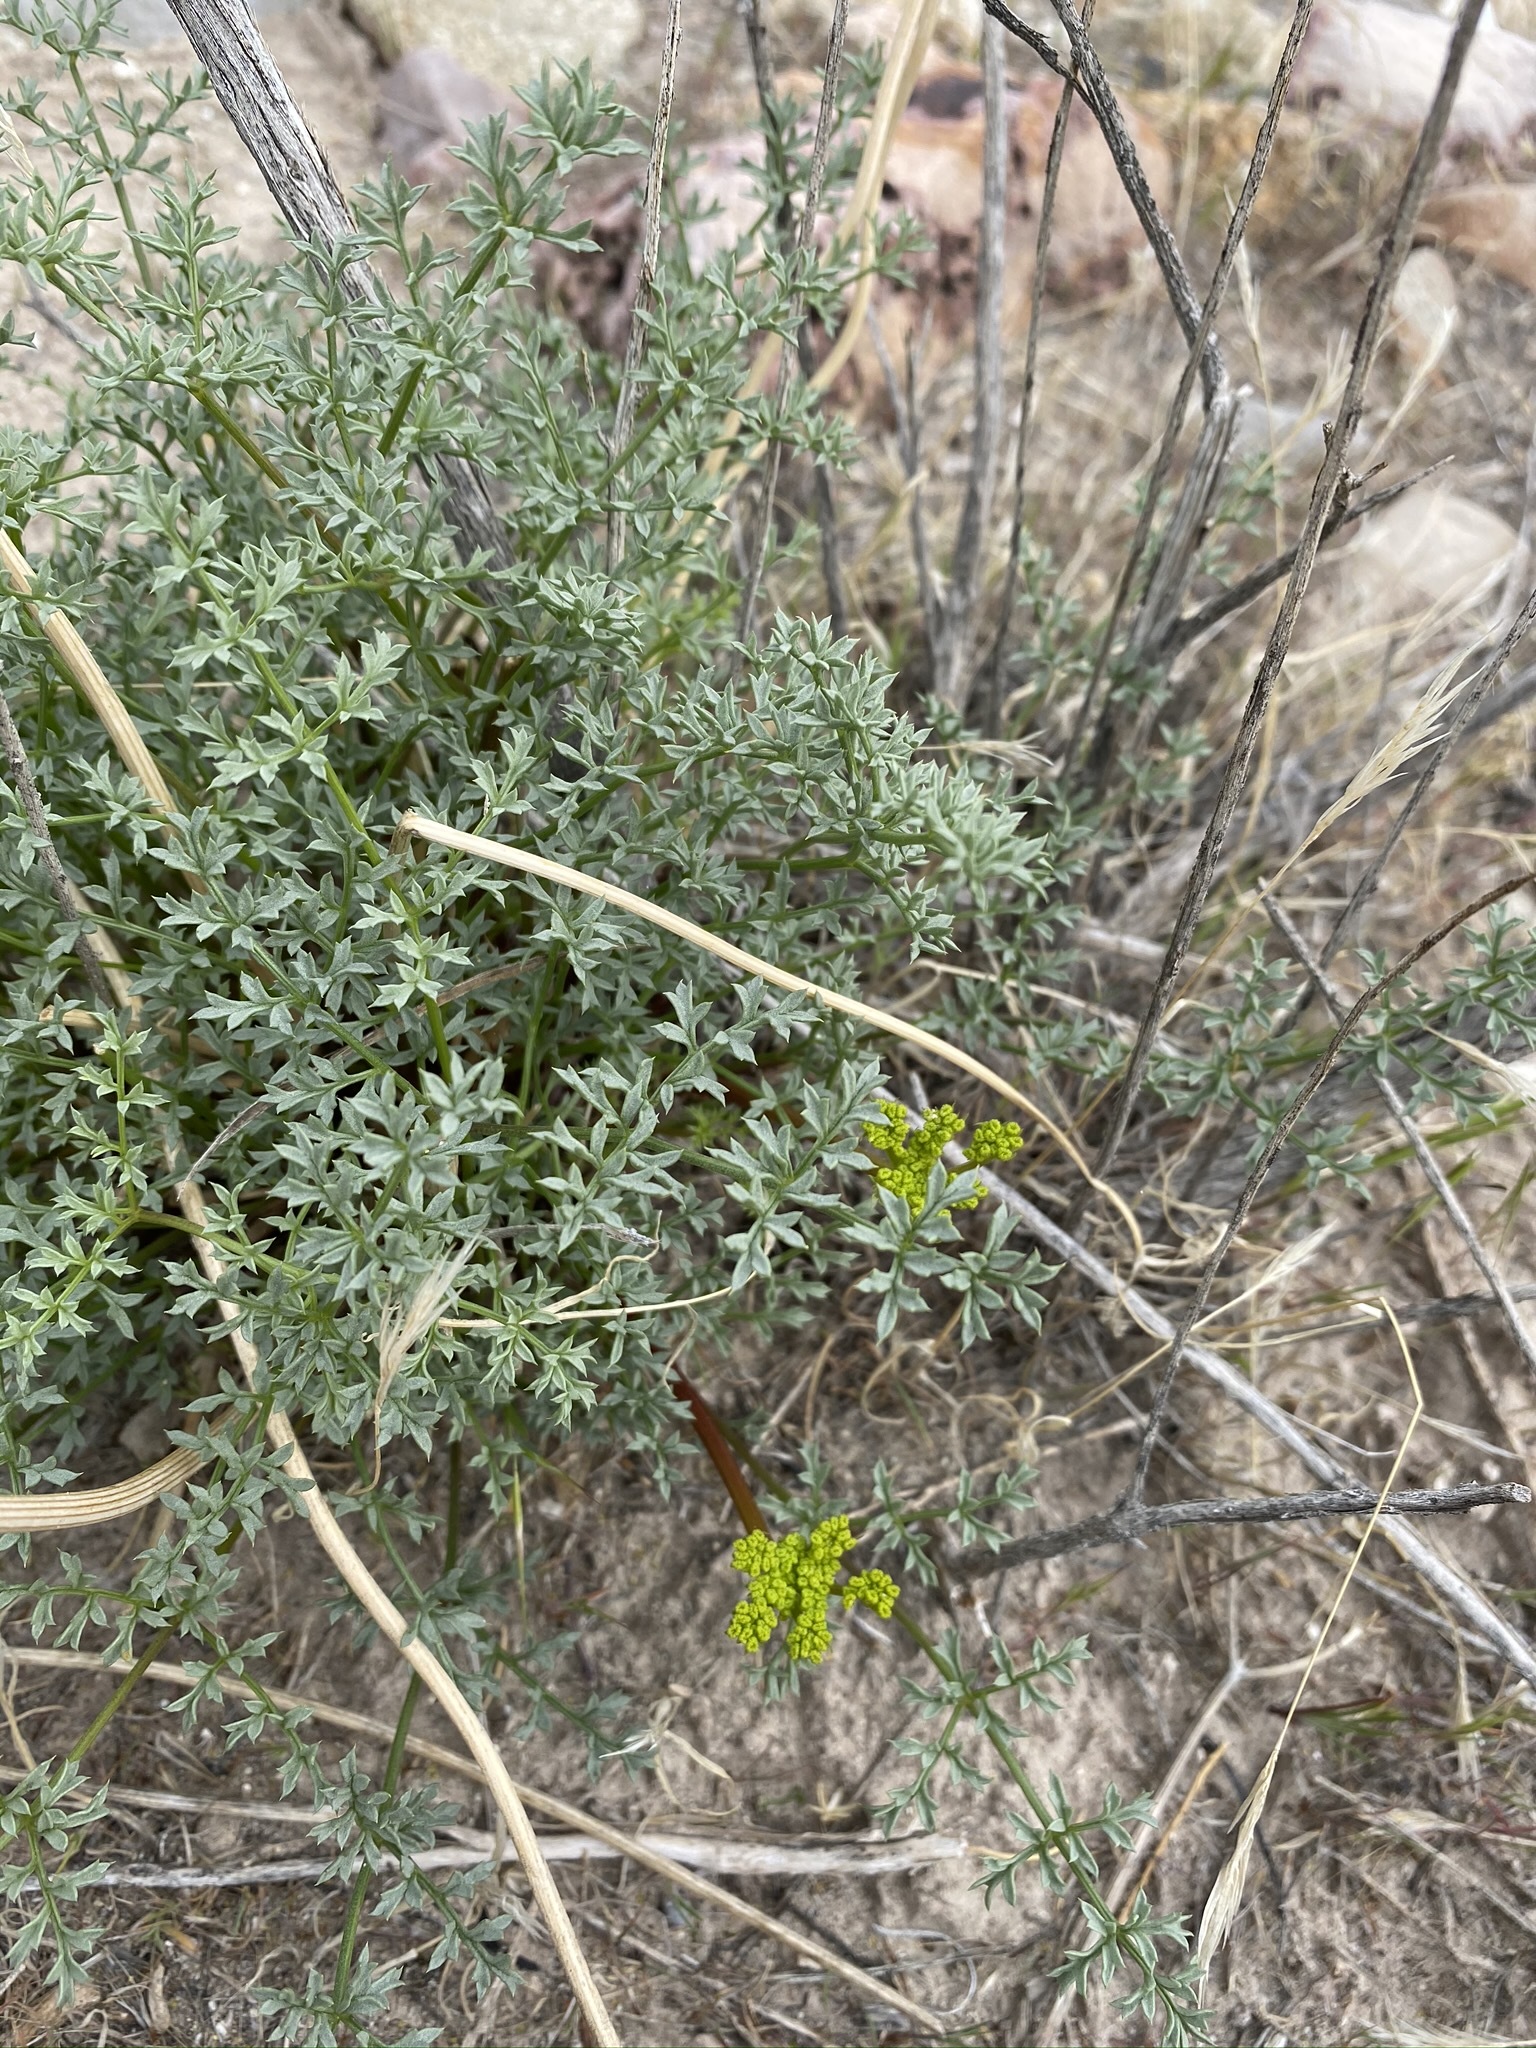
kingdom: Plantae
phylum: Tracheophyta
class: Magnoliopsida
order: Apiales
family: Apiaceae
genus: Pteryxia
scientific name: Pteryxia terebinthina
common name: Turpentine wavewing
